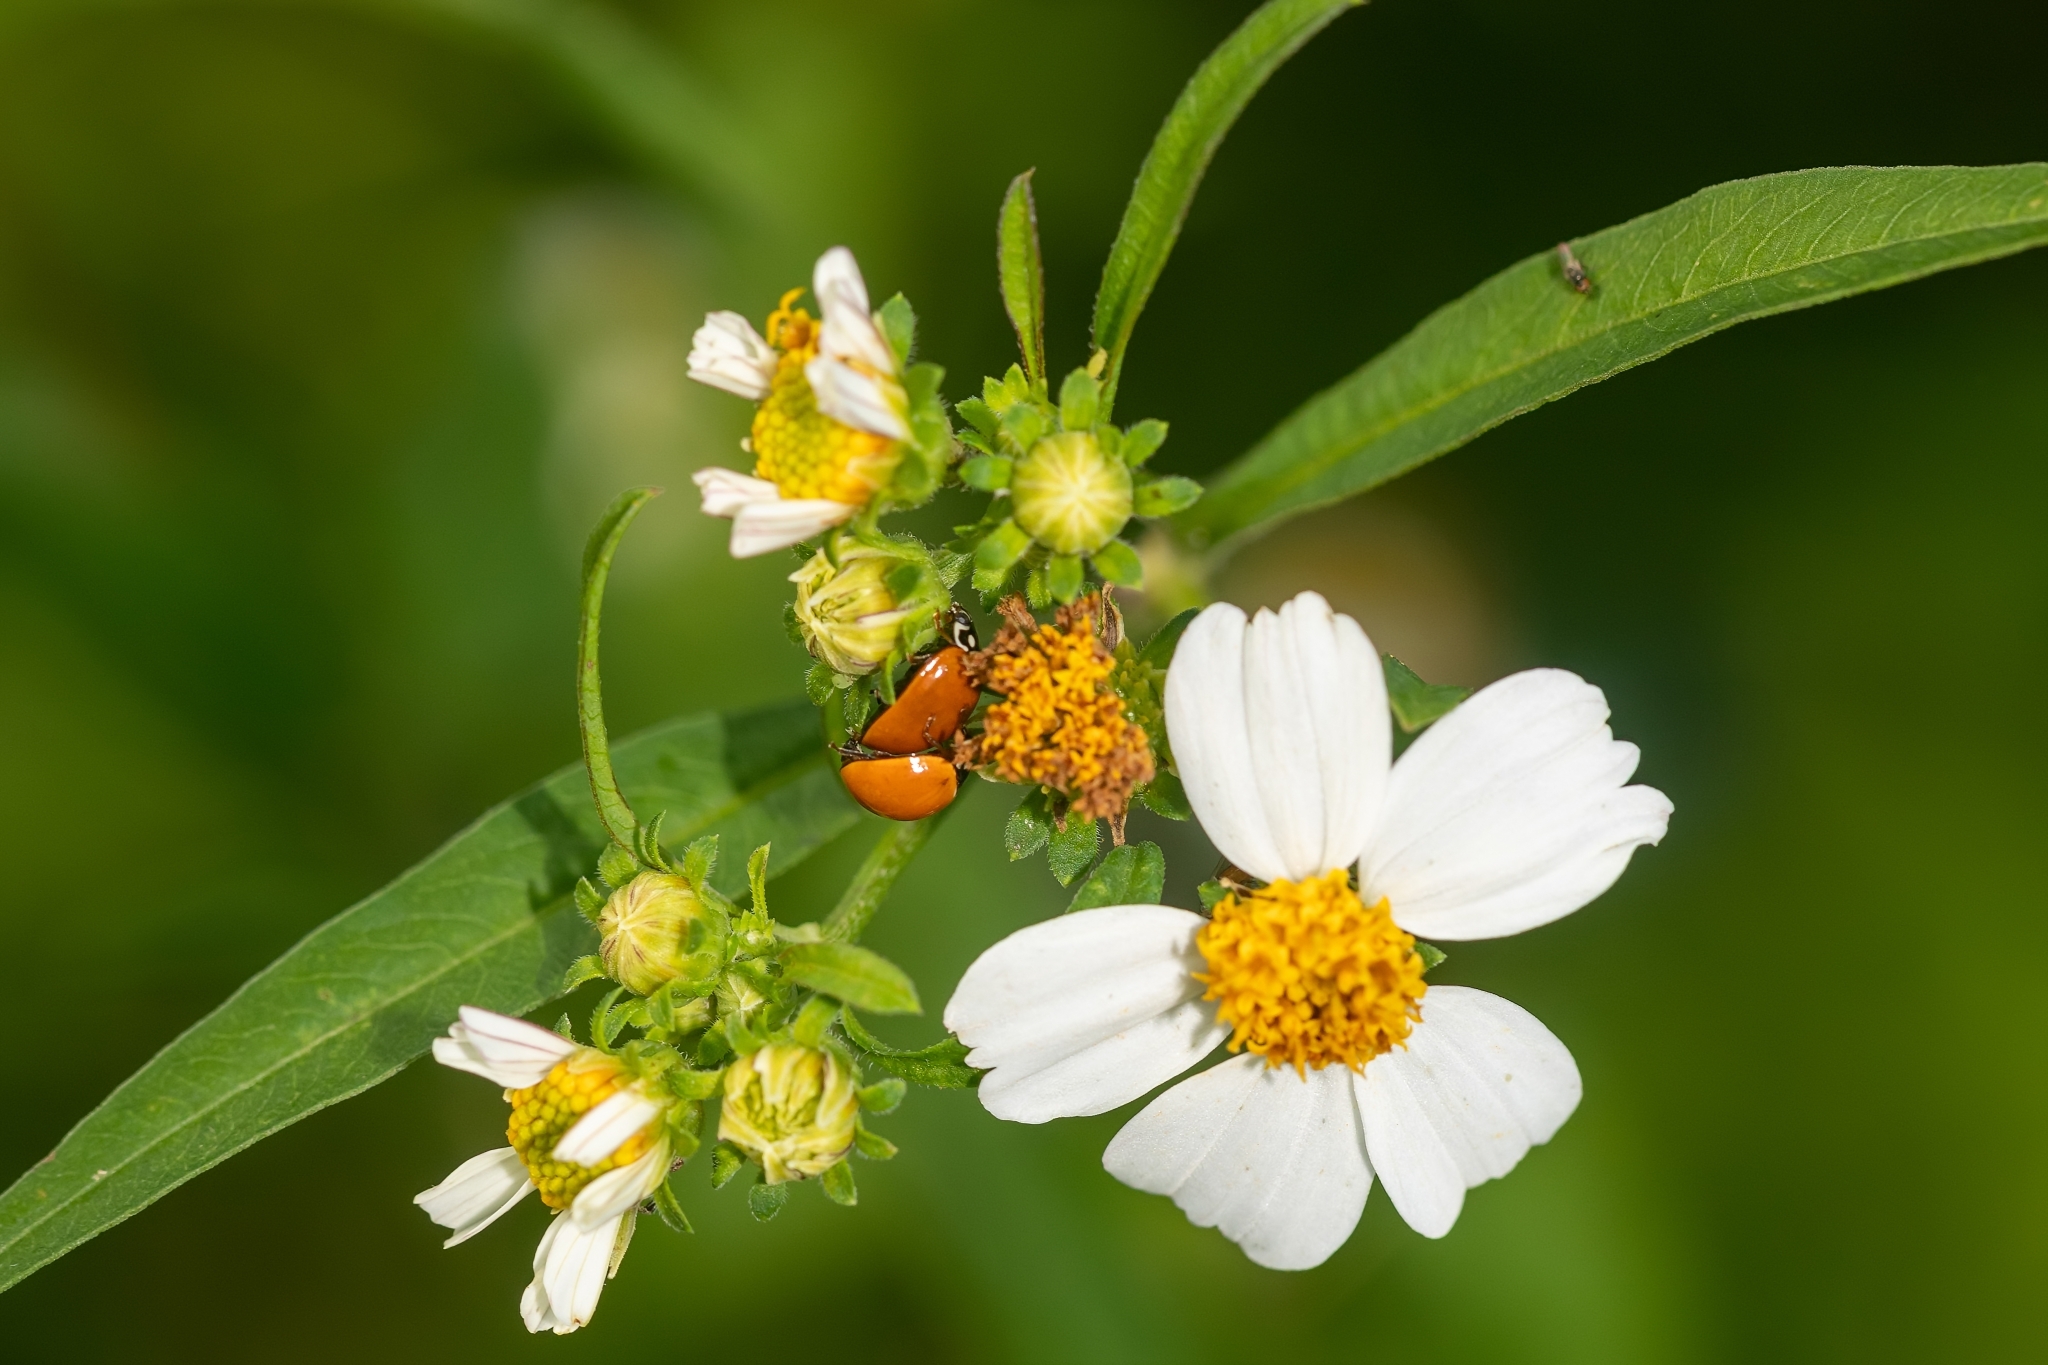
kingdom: Animalia
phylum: Arthropoda
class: Insecta
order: Coleoptera
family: Coccinellidae
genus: Cycloneda
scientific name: Cycloneda sanguinea
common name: Ladybird beetle
